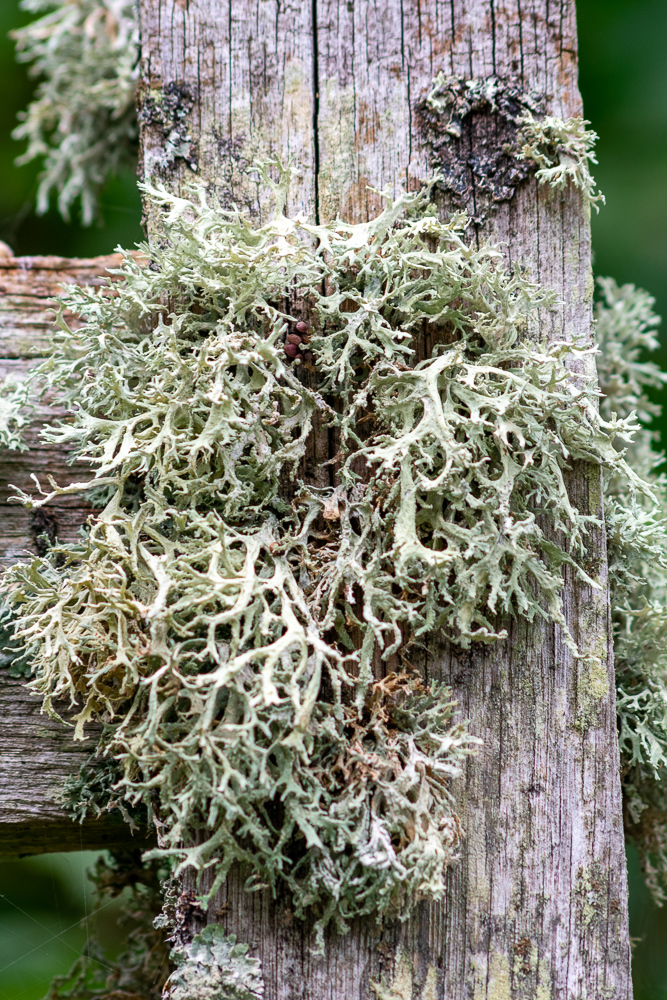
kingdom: Fungi
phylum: Ascomycota
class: Lecanoromycetes
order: Lecanorales
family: Parmeliaceae
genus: Evernia
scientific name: Evernia prunastri
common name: Oak moss
